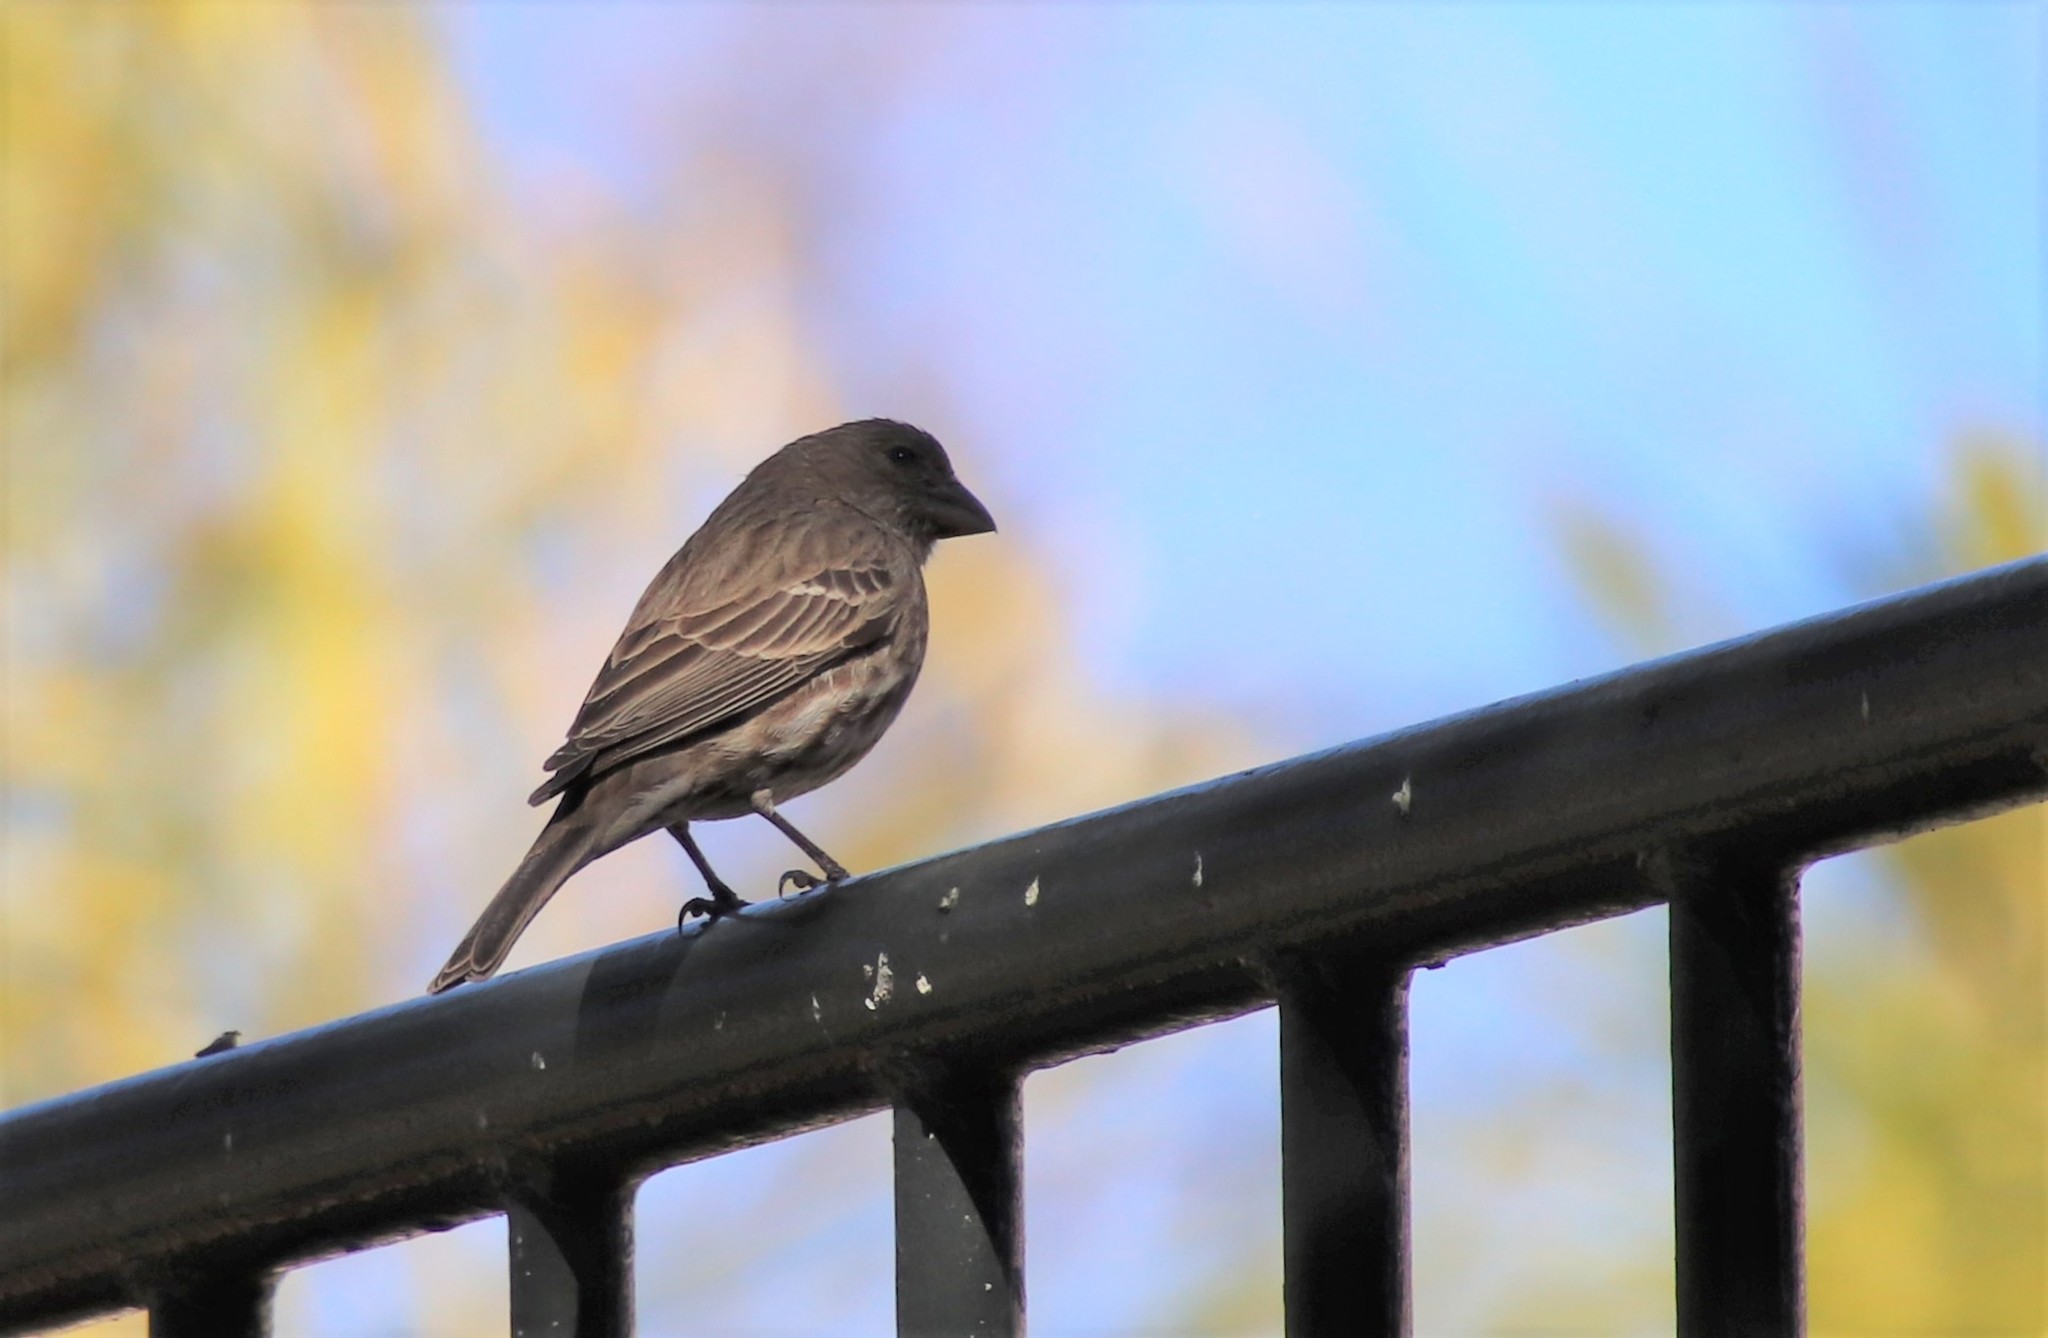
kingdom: Animalia
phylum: Chordata
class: Aves
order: Passeriformes
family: Fringillidae
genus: Haemorhous
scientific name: Haemorhous mexicanus
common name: House finch
